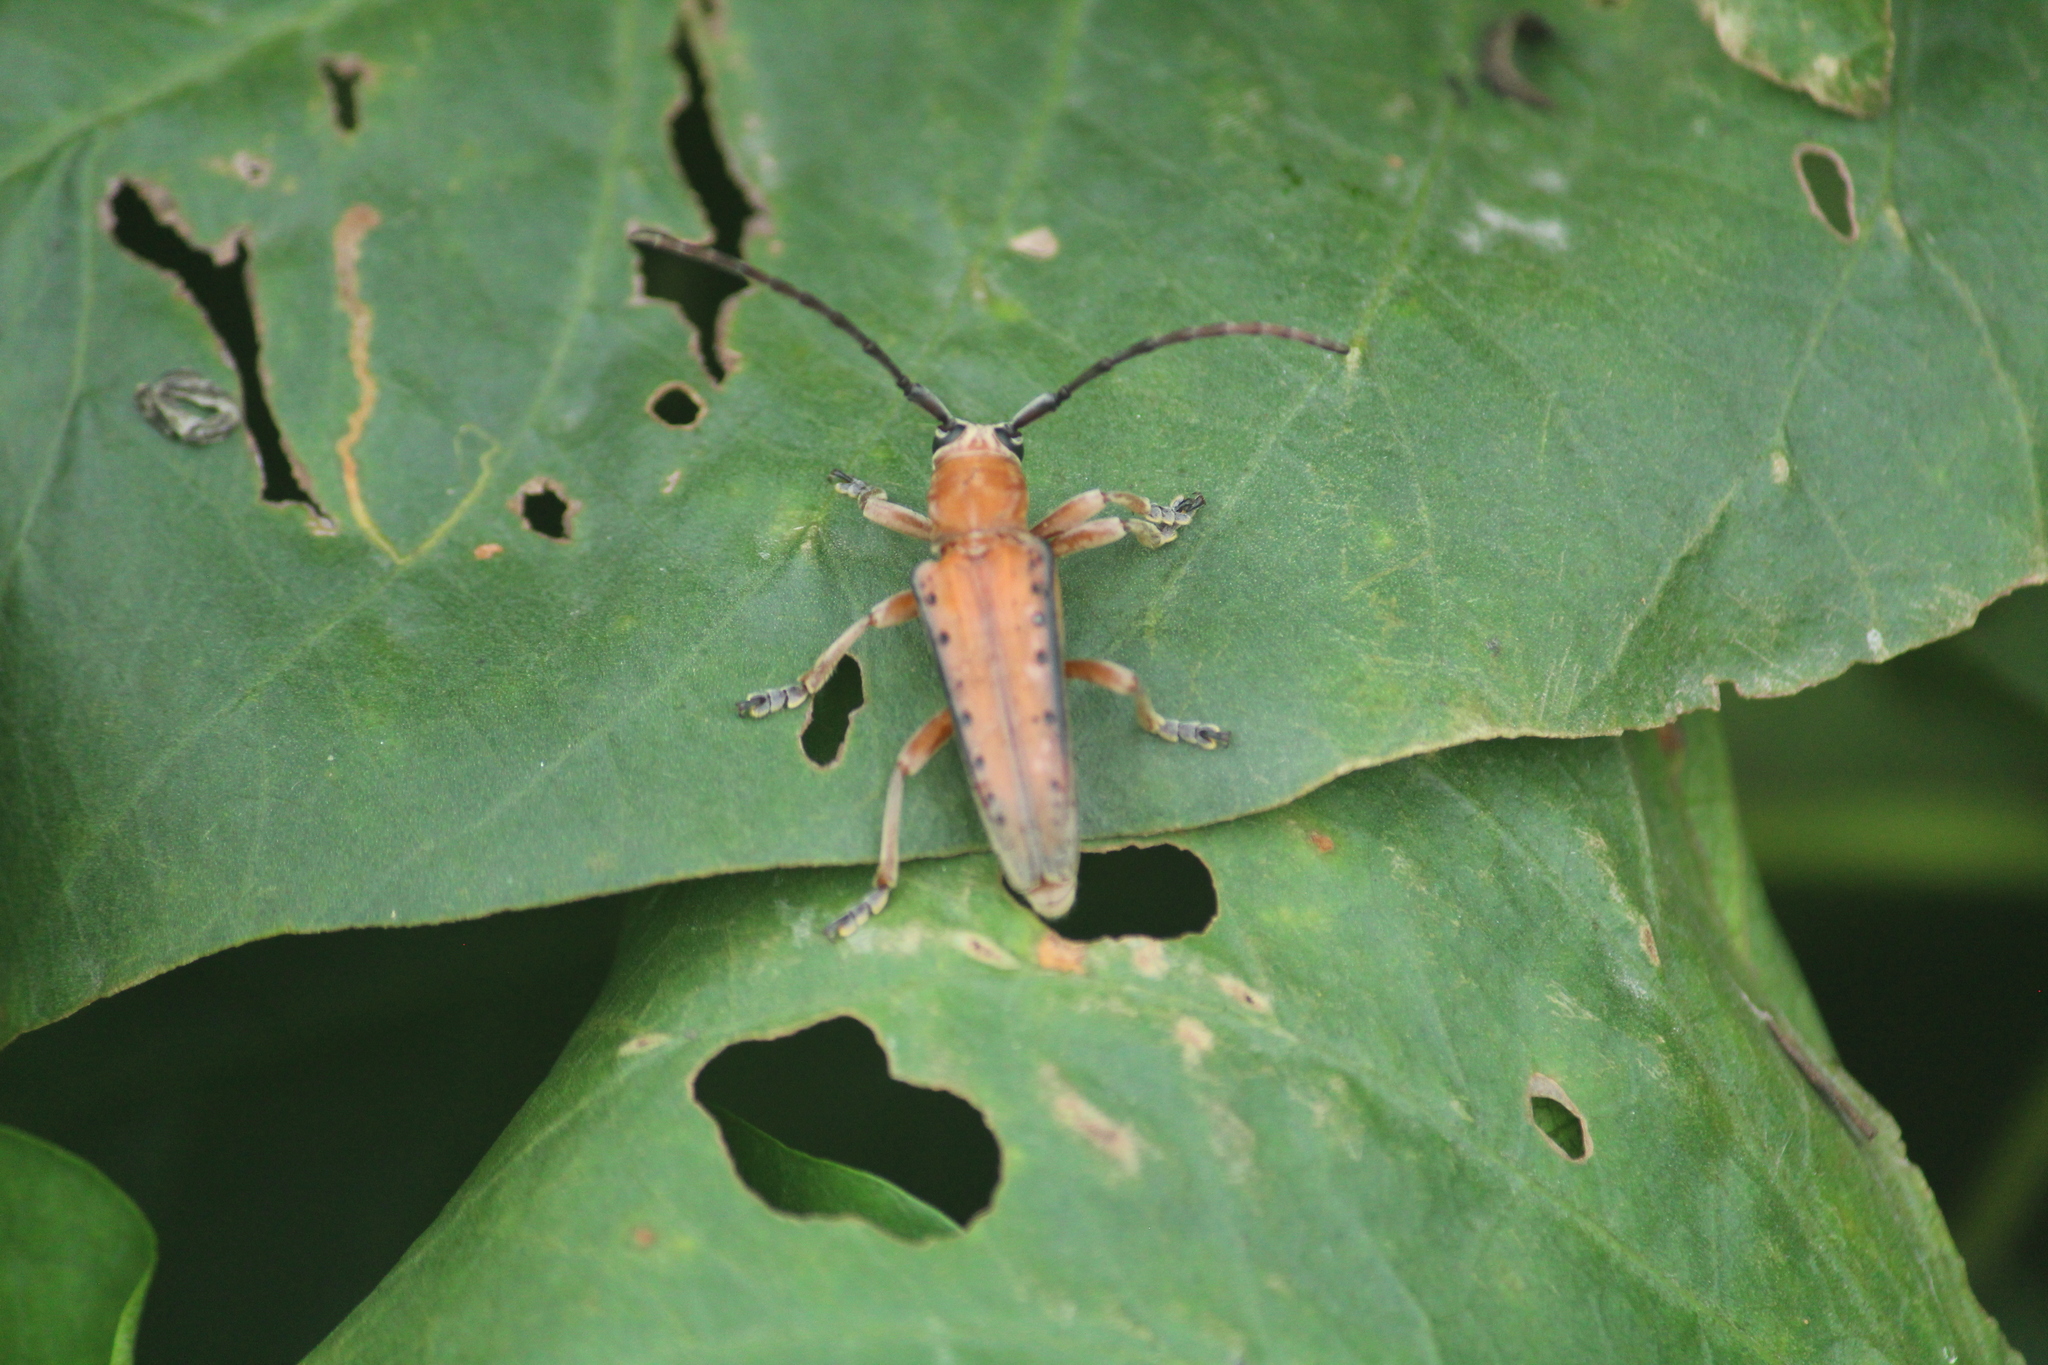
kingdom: Animalia
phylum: Arthropoda
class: Insecta
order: Coleoptera
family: Cerambycidae
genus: Stibara
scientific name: Stibara morbillosa
